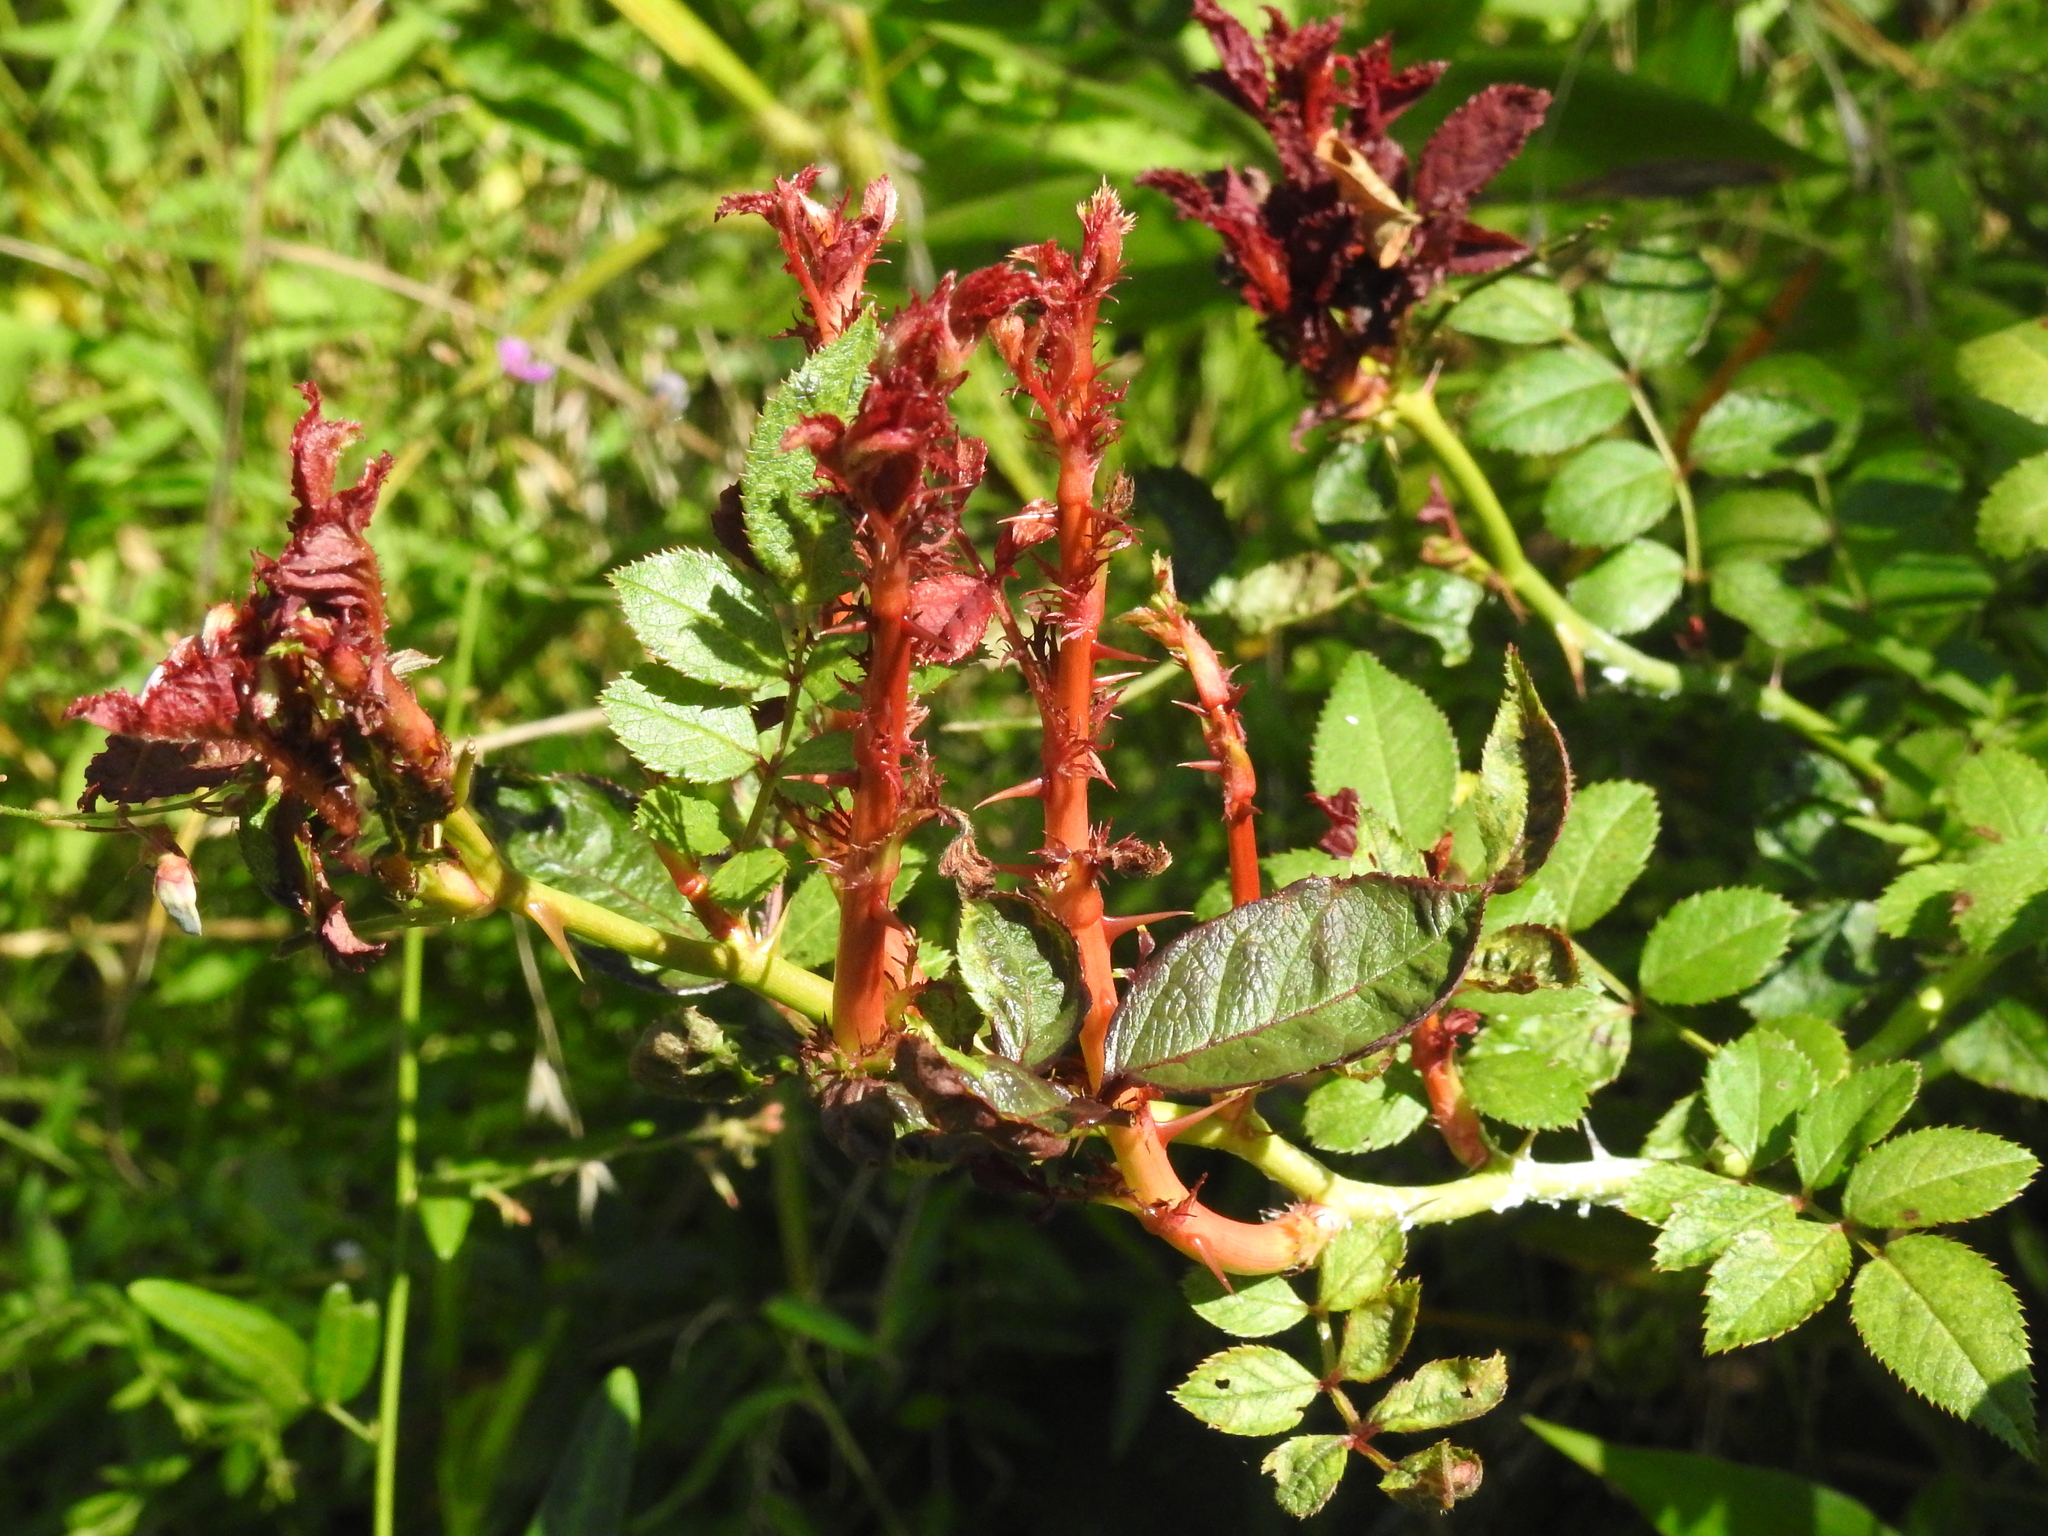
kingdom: Viruses
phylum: Negarnaviricota
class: Ellioviricetes
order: Bunyavirales
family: Fimoviridae
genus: Emaravirus
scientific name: Emaravirus rosae
